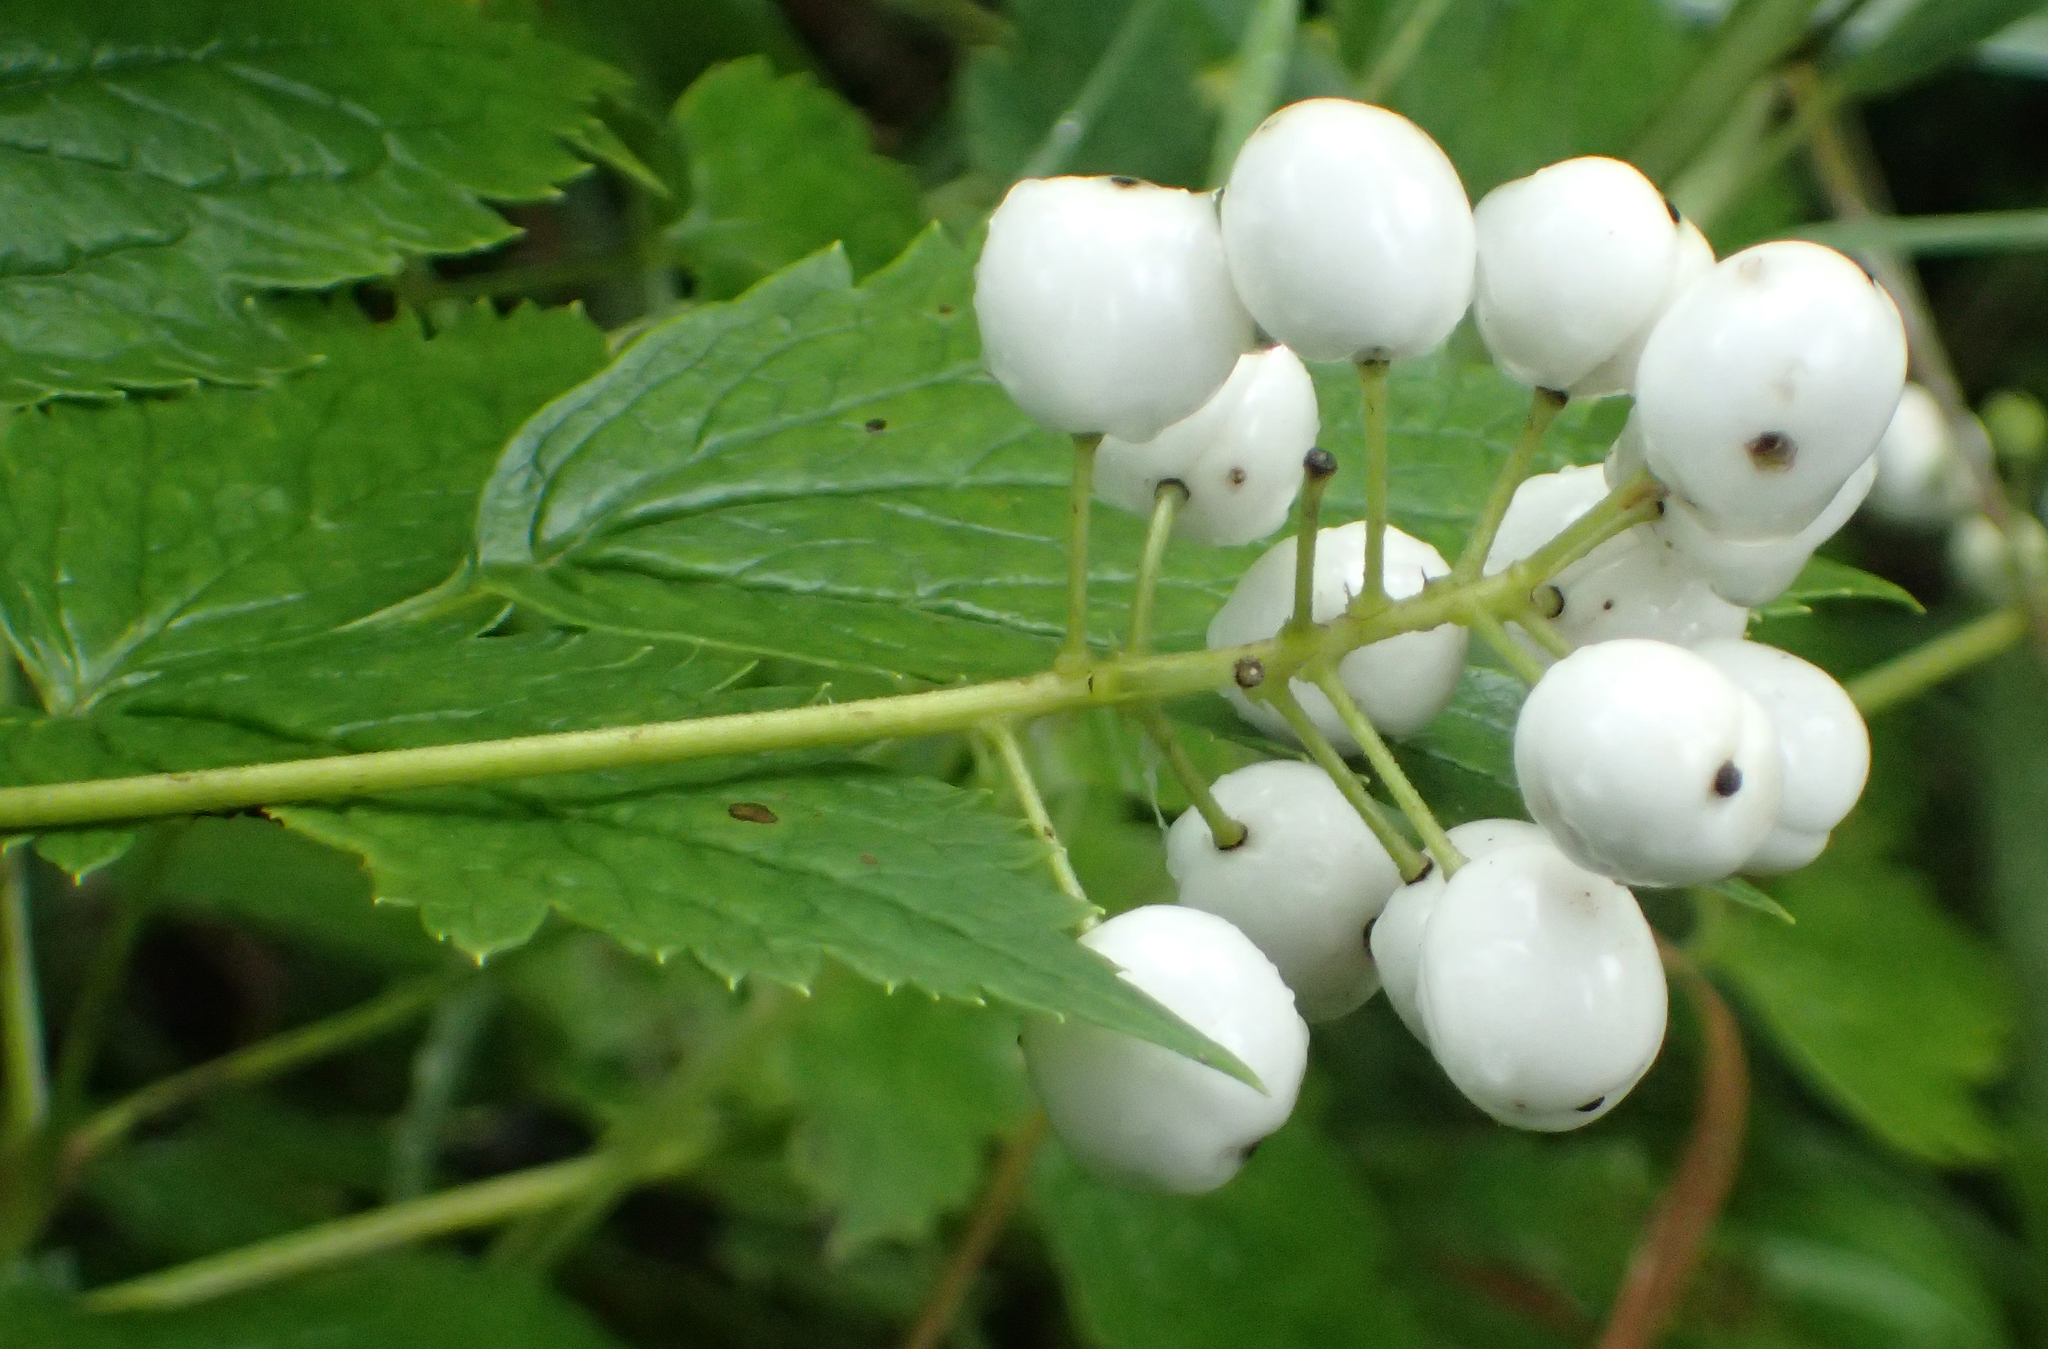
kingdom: Plantae
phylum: Tracheophyta
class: Magnoliopsida
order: Ranunculales
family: Ranunculaceae
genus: Actaea
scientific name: Actaea rubra
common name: Red baneberry
